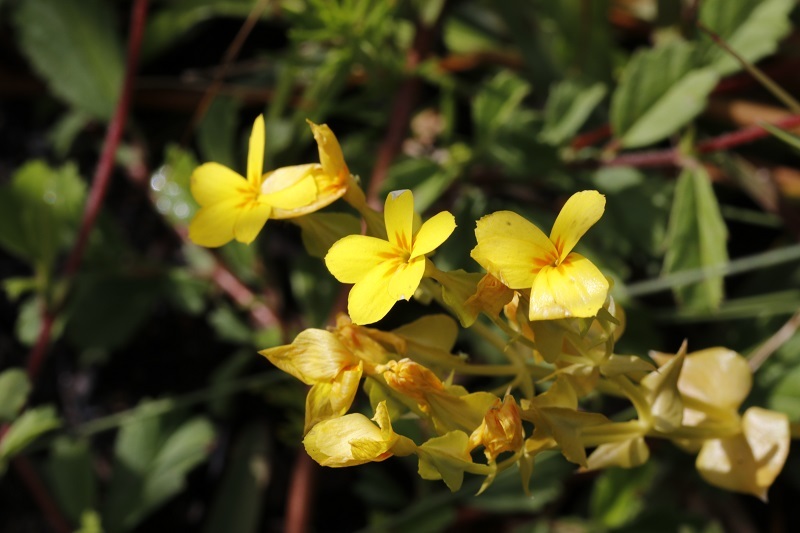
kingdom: Plantae
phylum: Tracheophyta
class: Magnoliopsida
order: Gentianales
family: Gentianaceae
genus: Sebaea
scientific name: Sebaea exacoides
